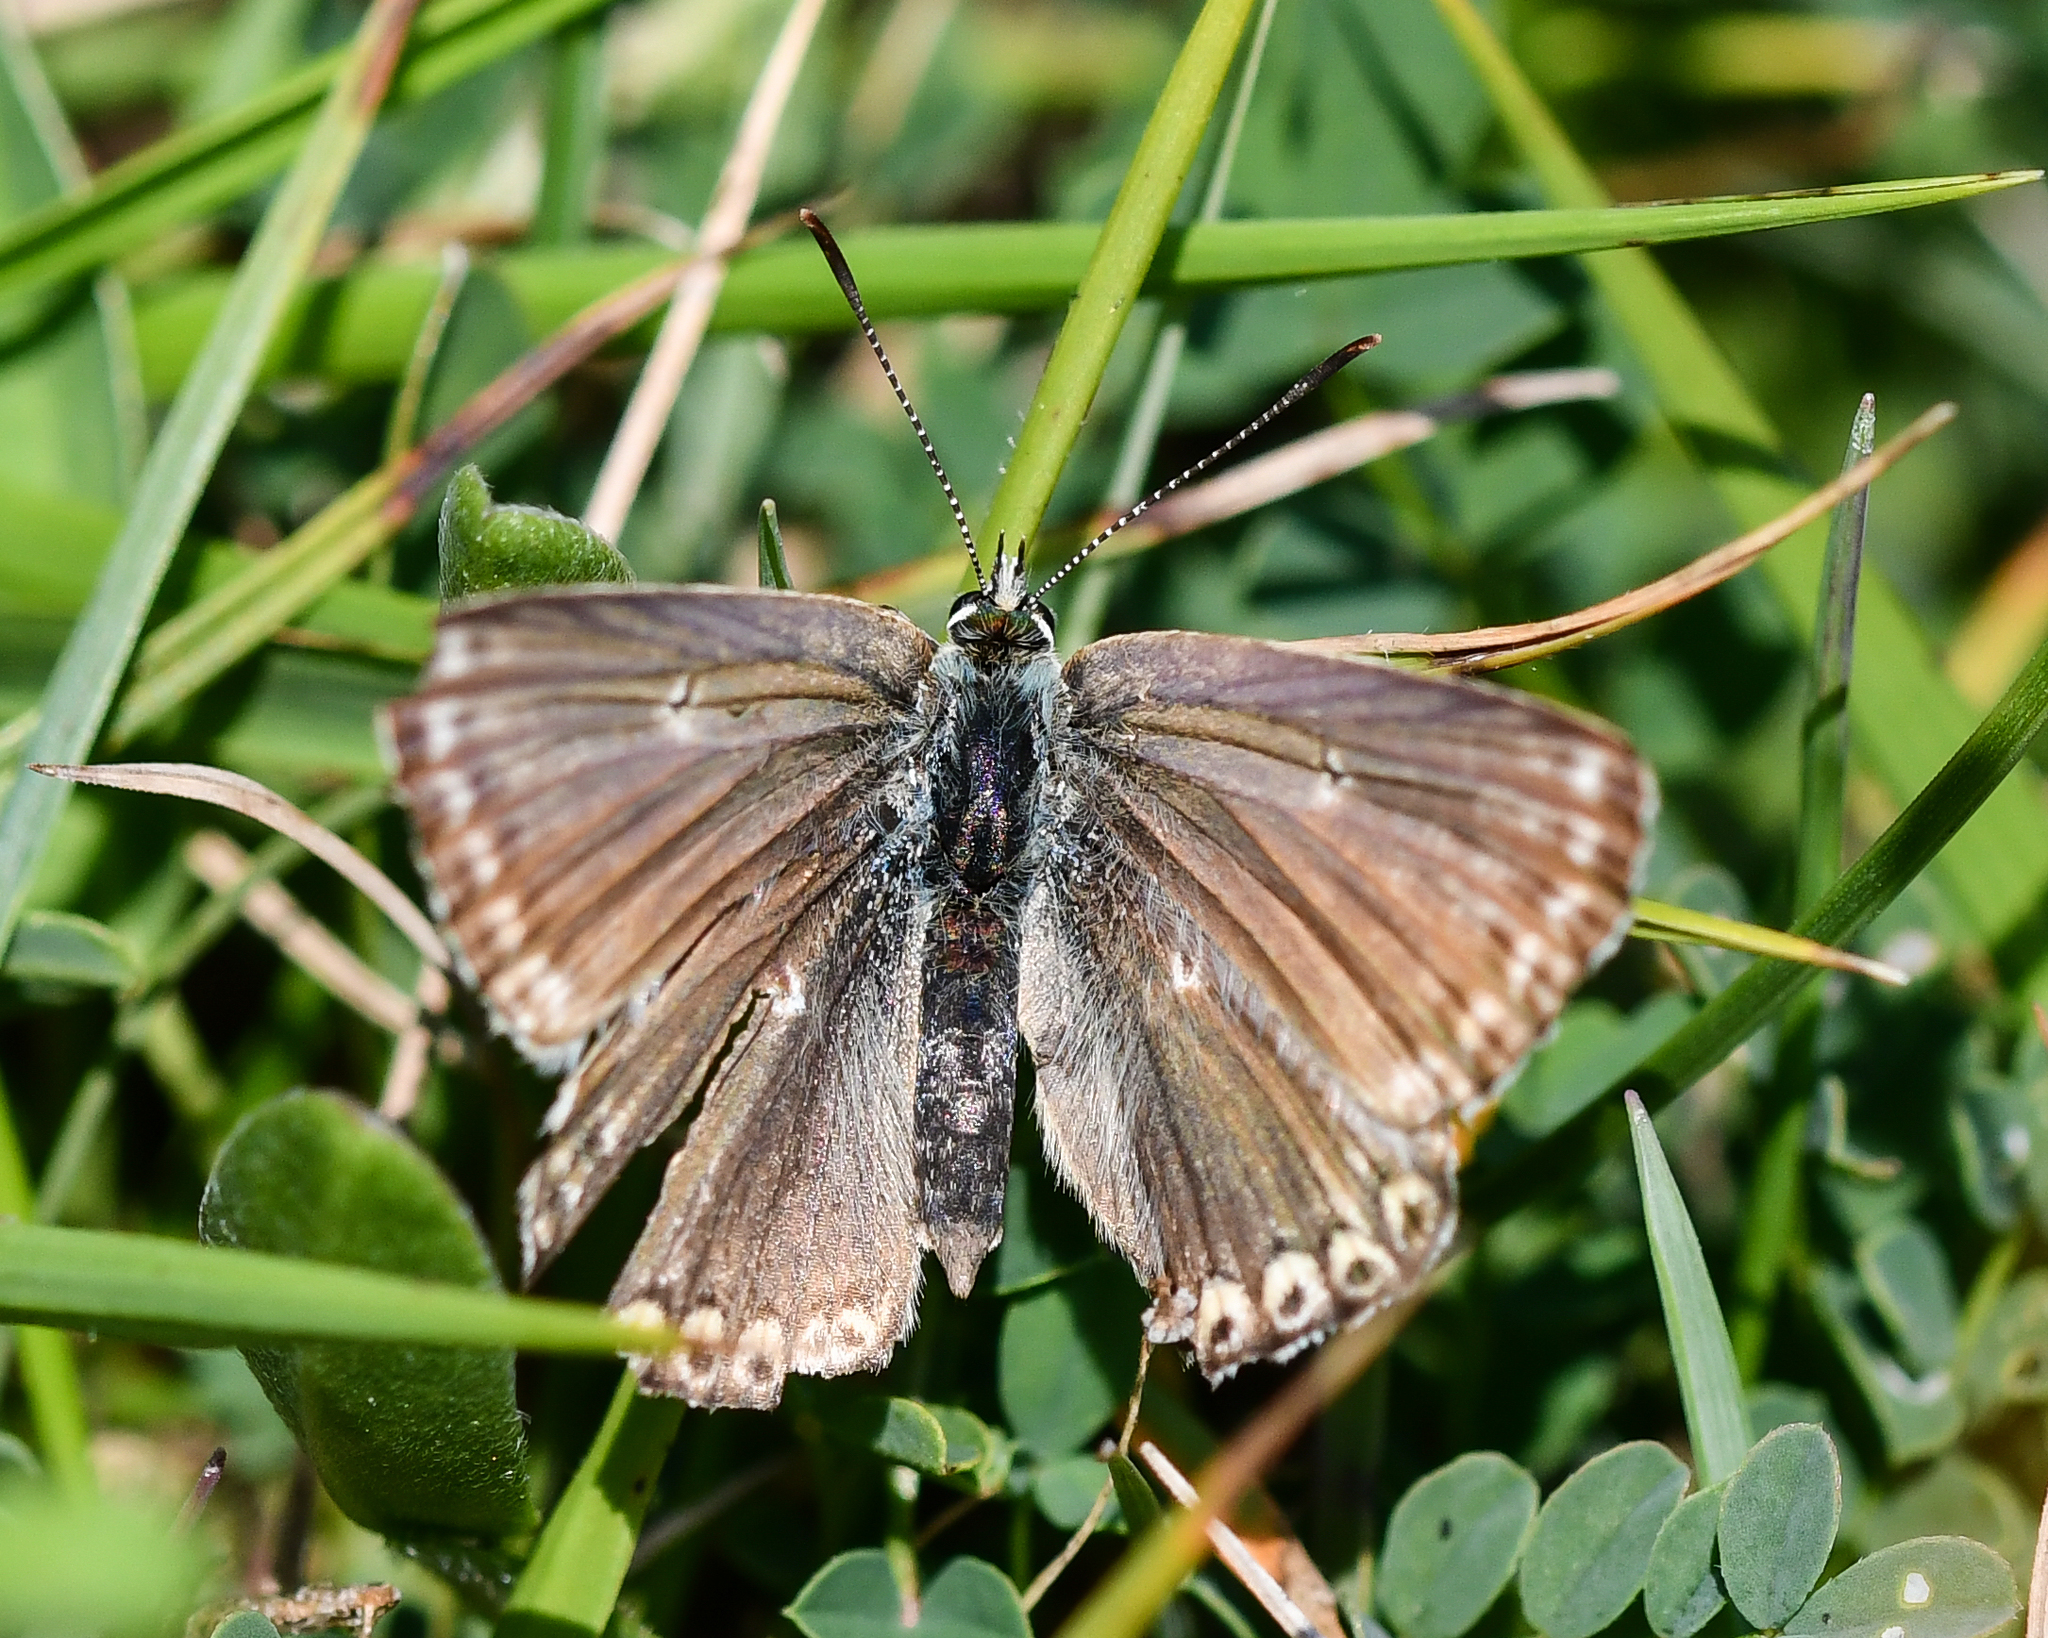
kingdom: Animalia
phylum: Arthropoda
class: Insecta
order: Lepidoptera
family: Lycaenidae
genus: Lysandra
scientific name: Lysandra coridon
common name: Chalkhill blue
